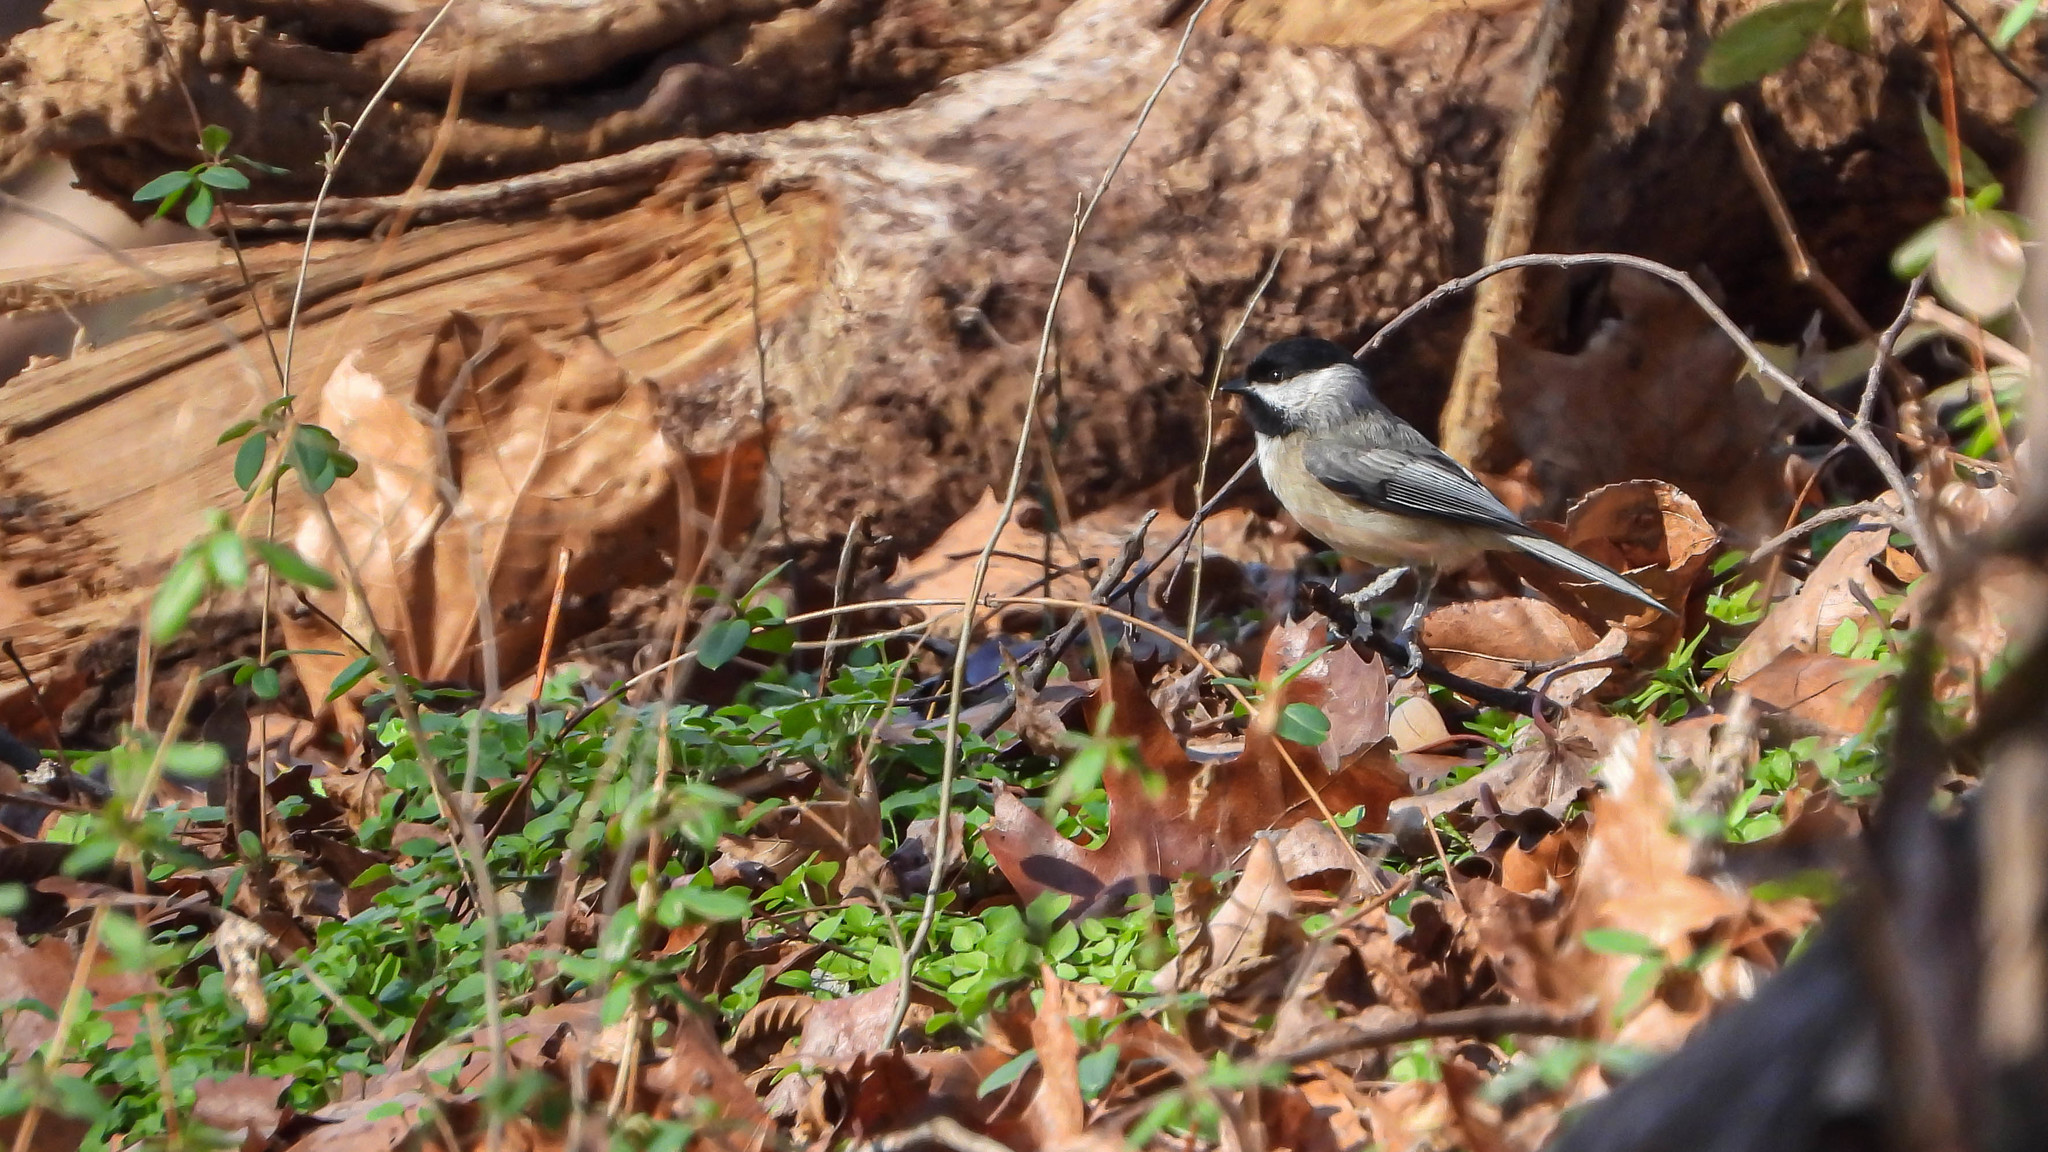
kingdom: Animalia
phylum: Chordata
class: Aves
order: Passeriformes
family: Paridae
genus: Poecile
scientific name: Poecile carolinensis
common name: Carolina chickadee
